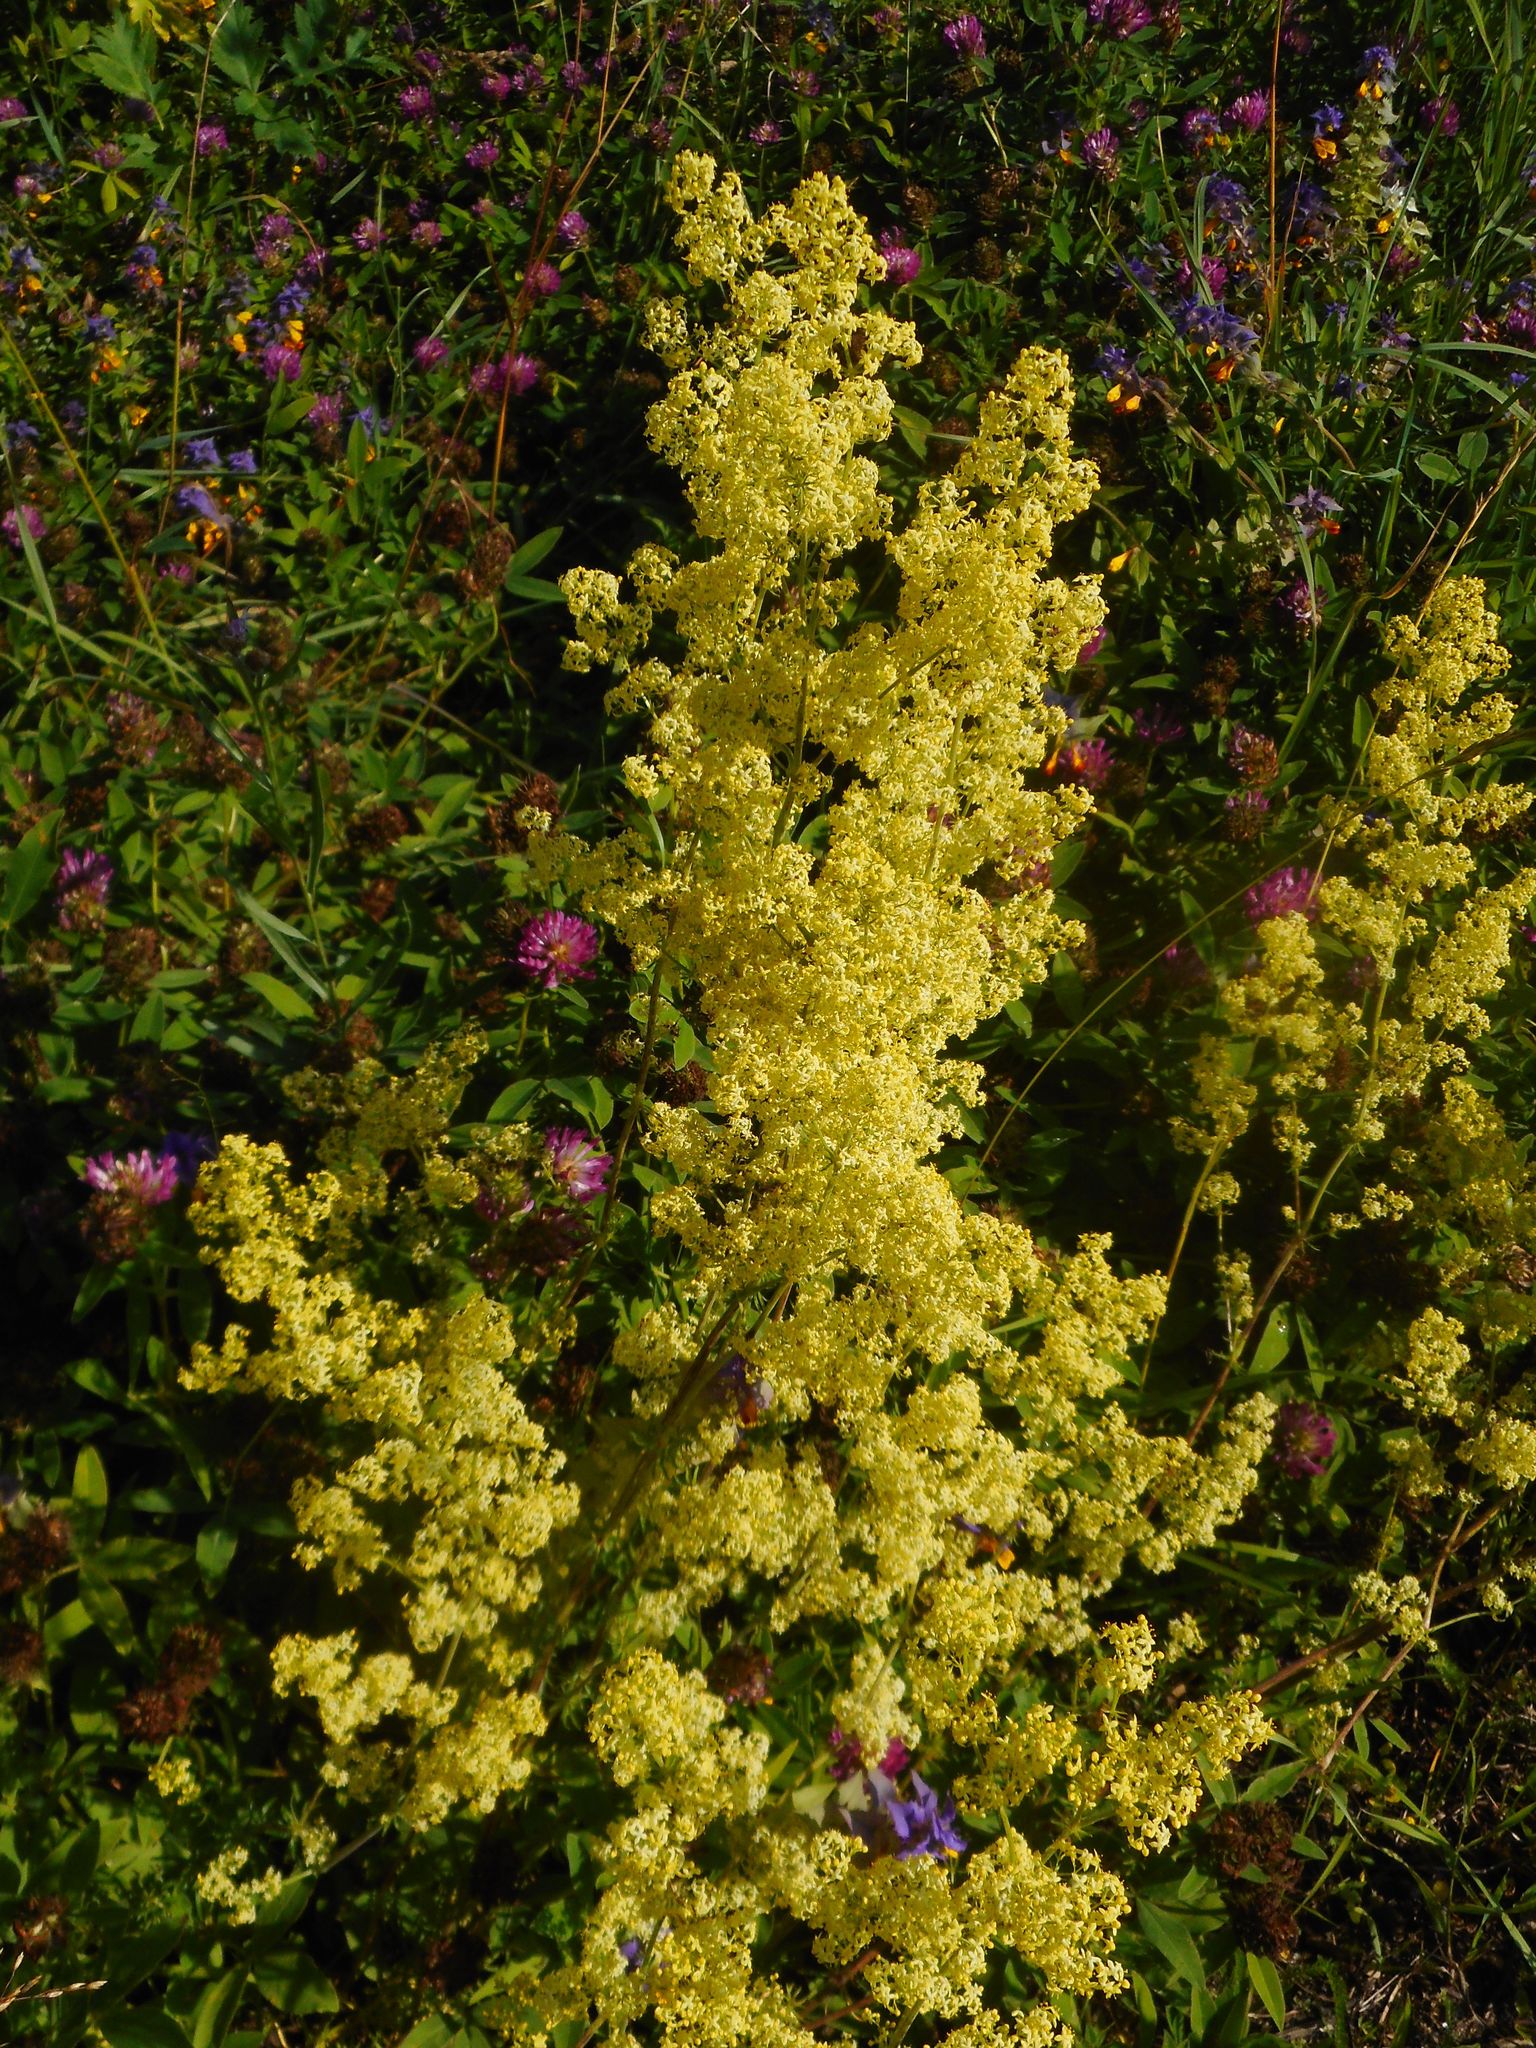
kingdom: Plantae
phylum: Tracheophyta
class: Magnoliopsida
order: Gentianales
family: Rubiaceae
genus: Galium
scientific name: Galium verum
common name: Lady's bedstraw
